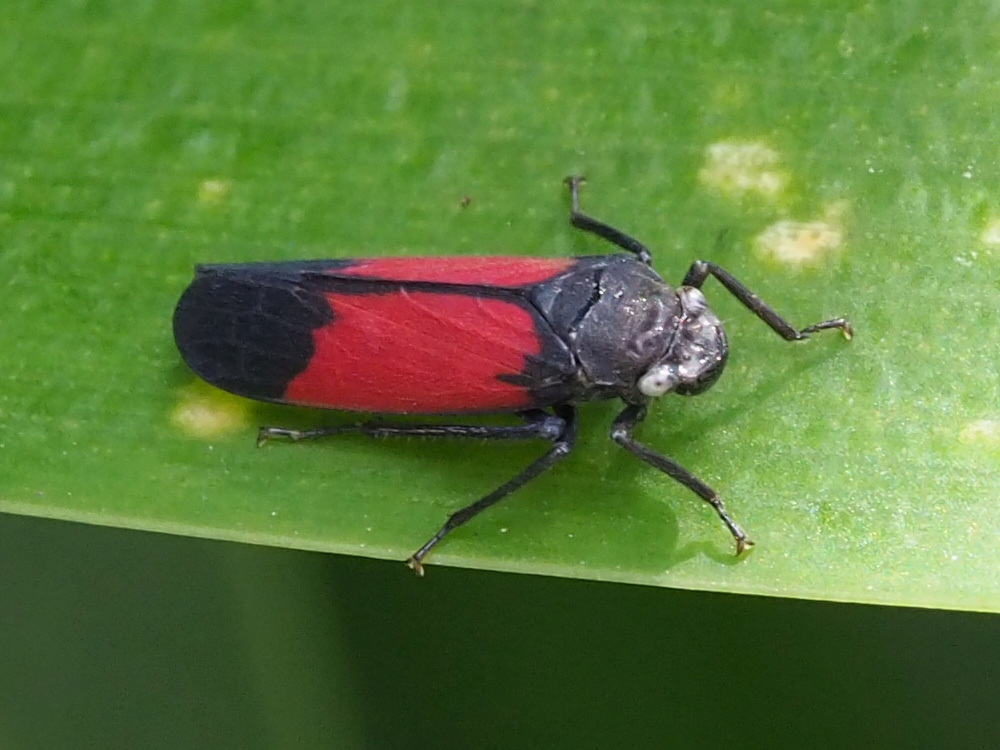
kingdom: Animalia
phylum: Arthropoda
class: Insecta
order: Hemiptera
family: Cicadellidae
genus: Cardioscarta
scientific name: Cardioscarta flavifrons
